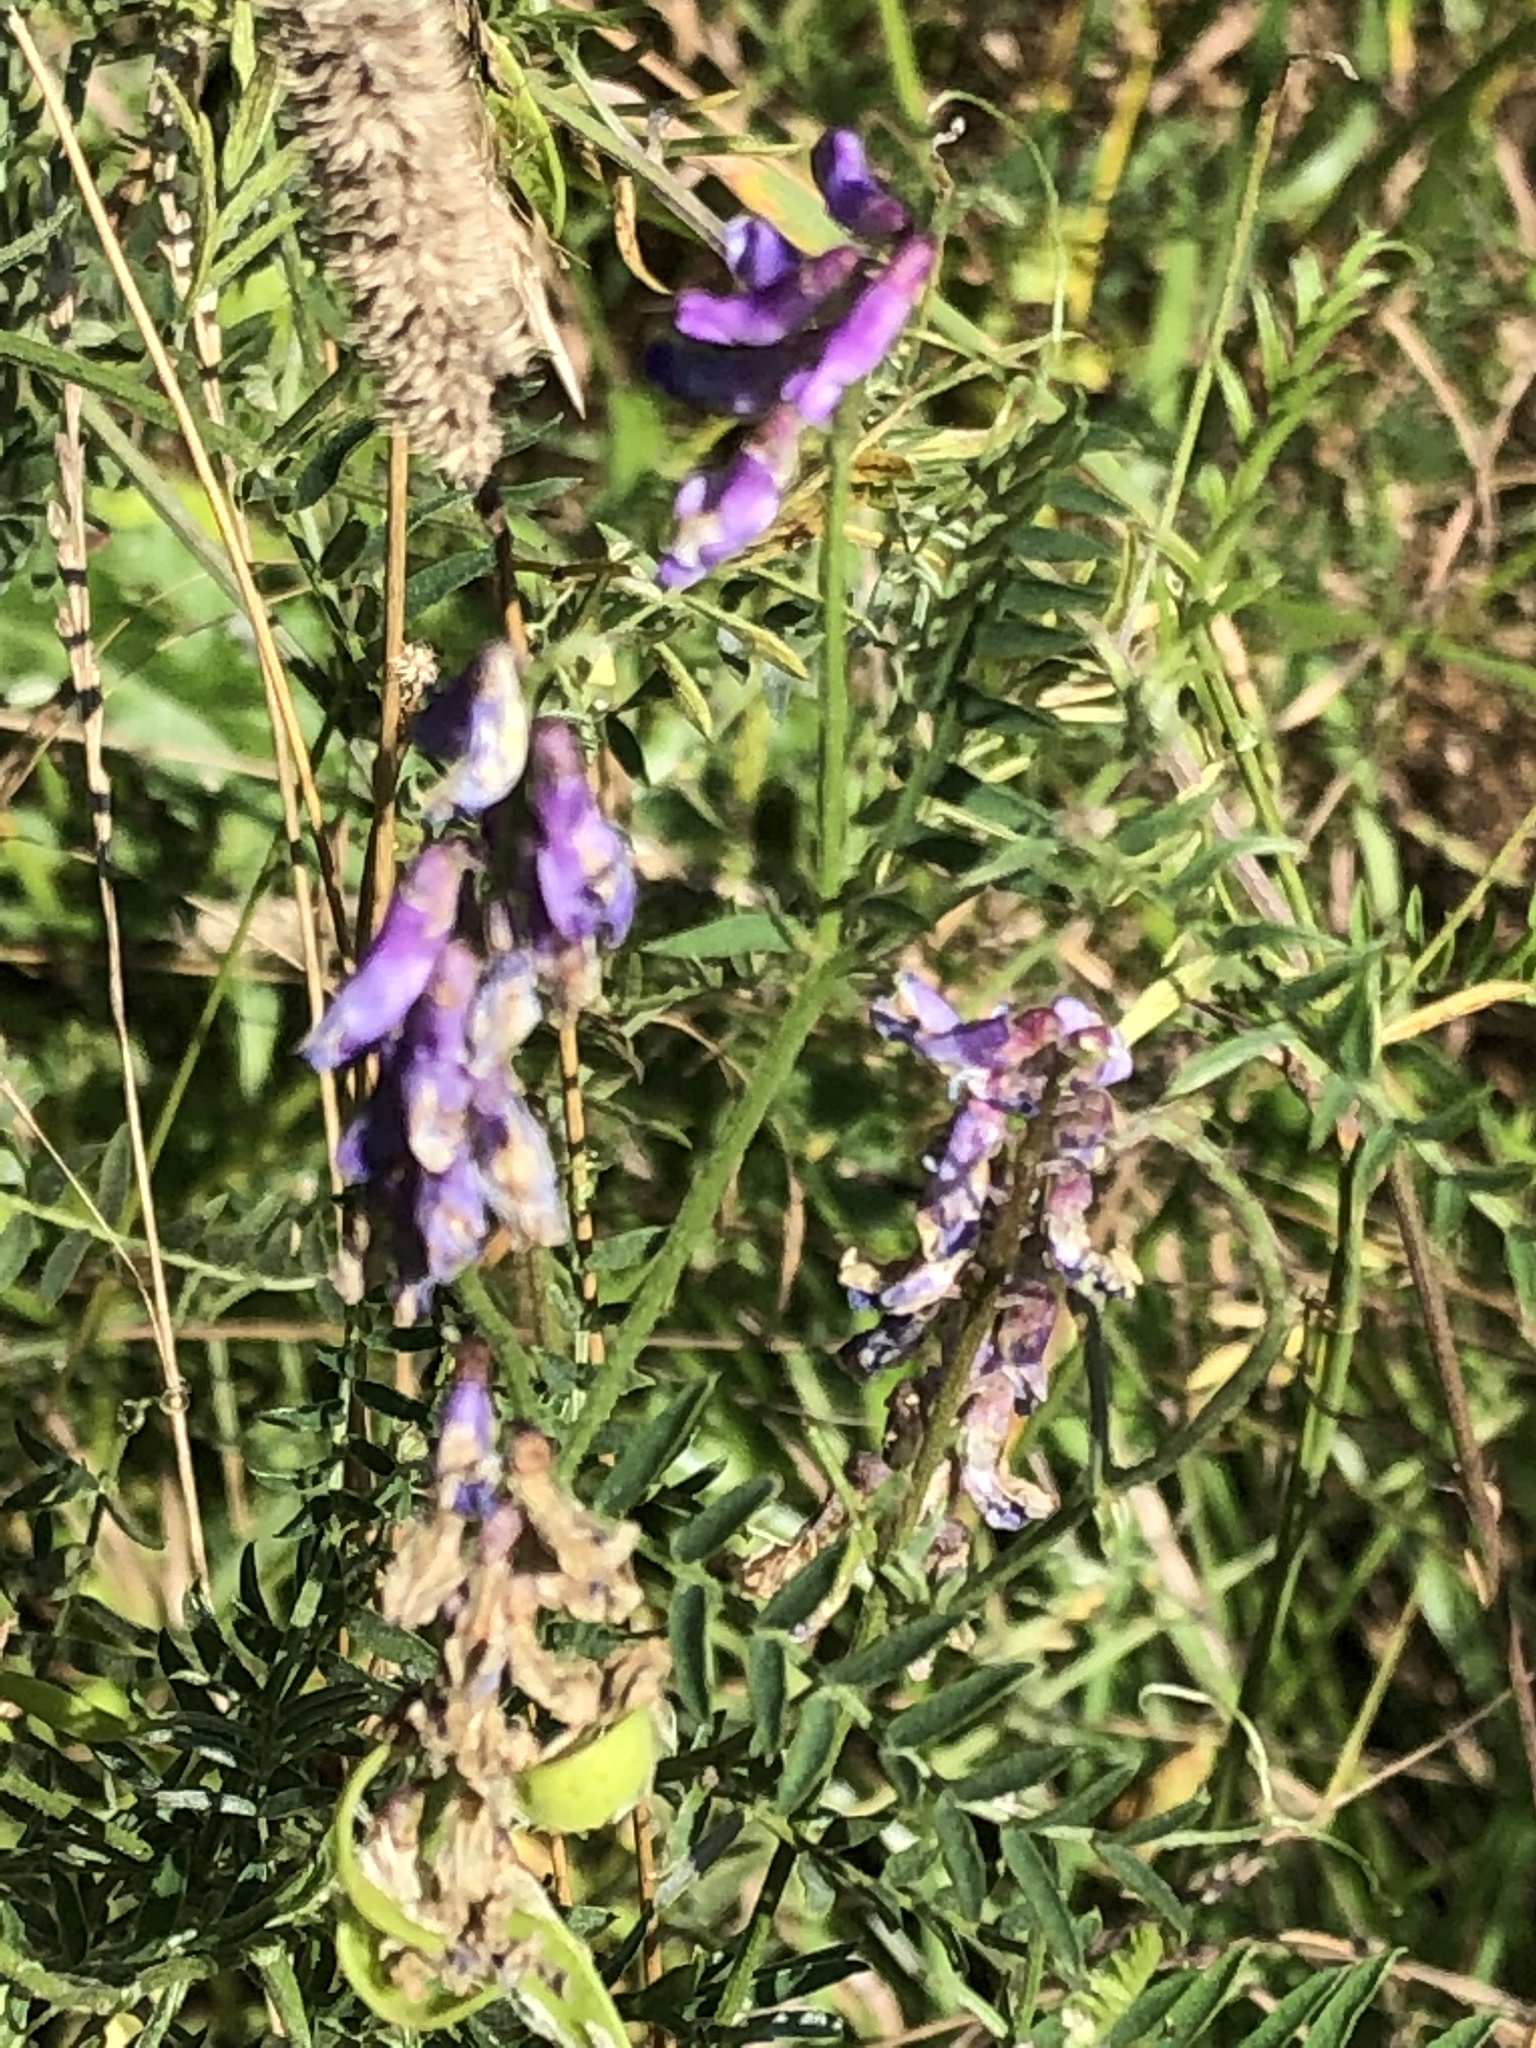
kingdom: Plantae
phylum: Tracheophyta
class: Magnoliopsida
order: Fabales
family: Fabaceae
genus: Vicia
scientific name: Vicia cracca
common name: Bird vetch
